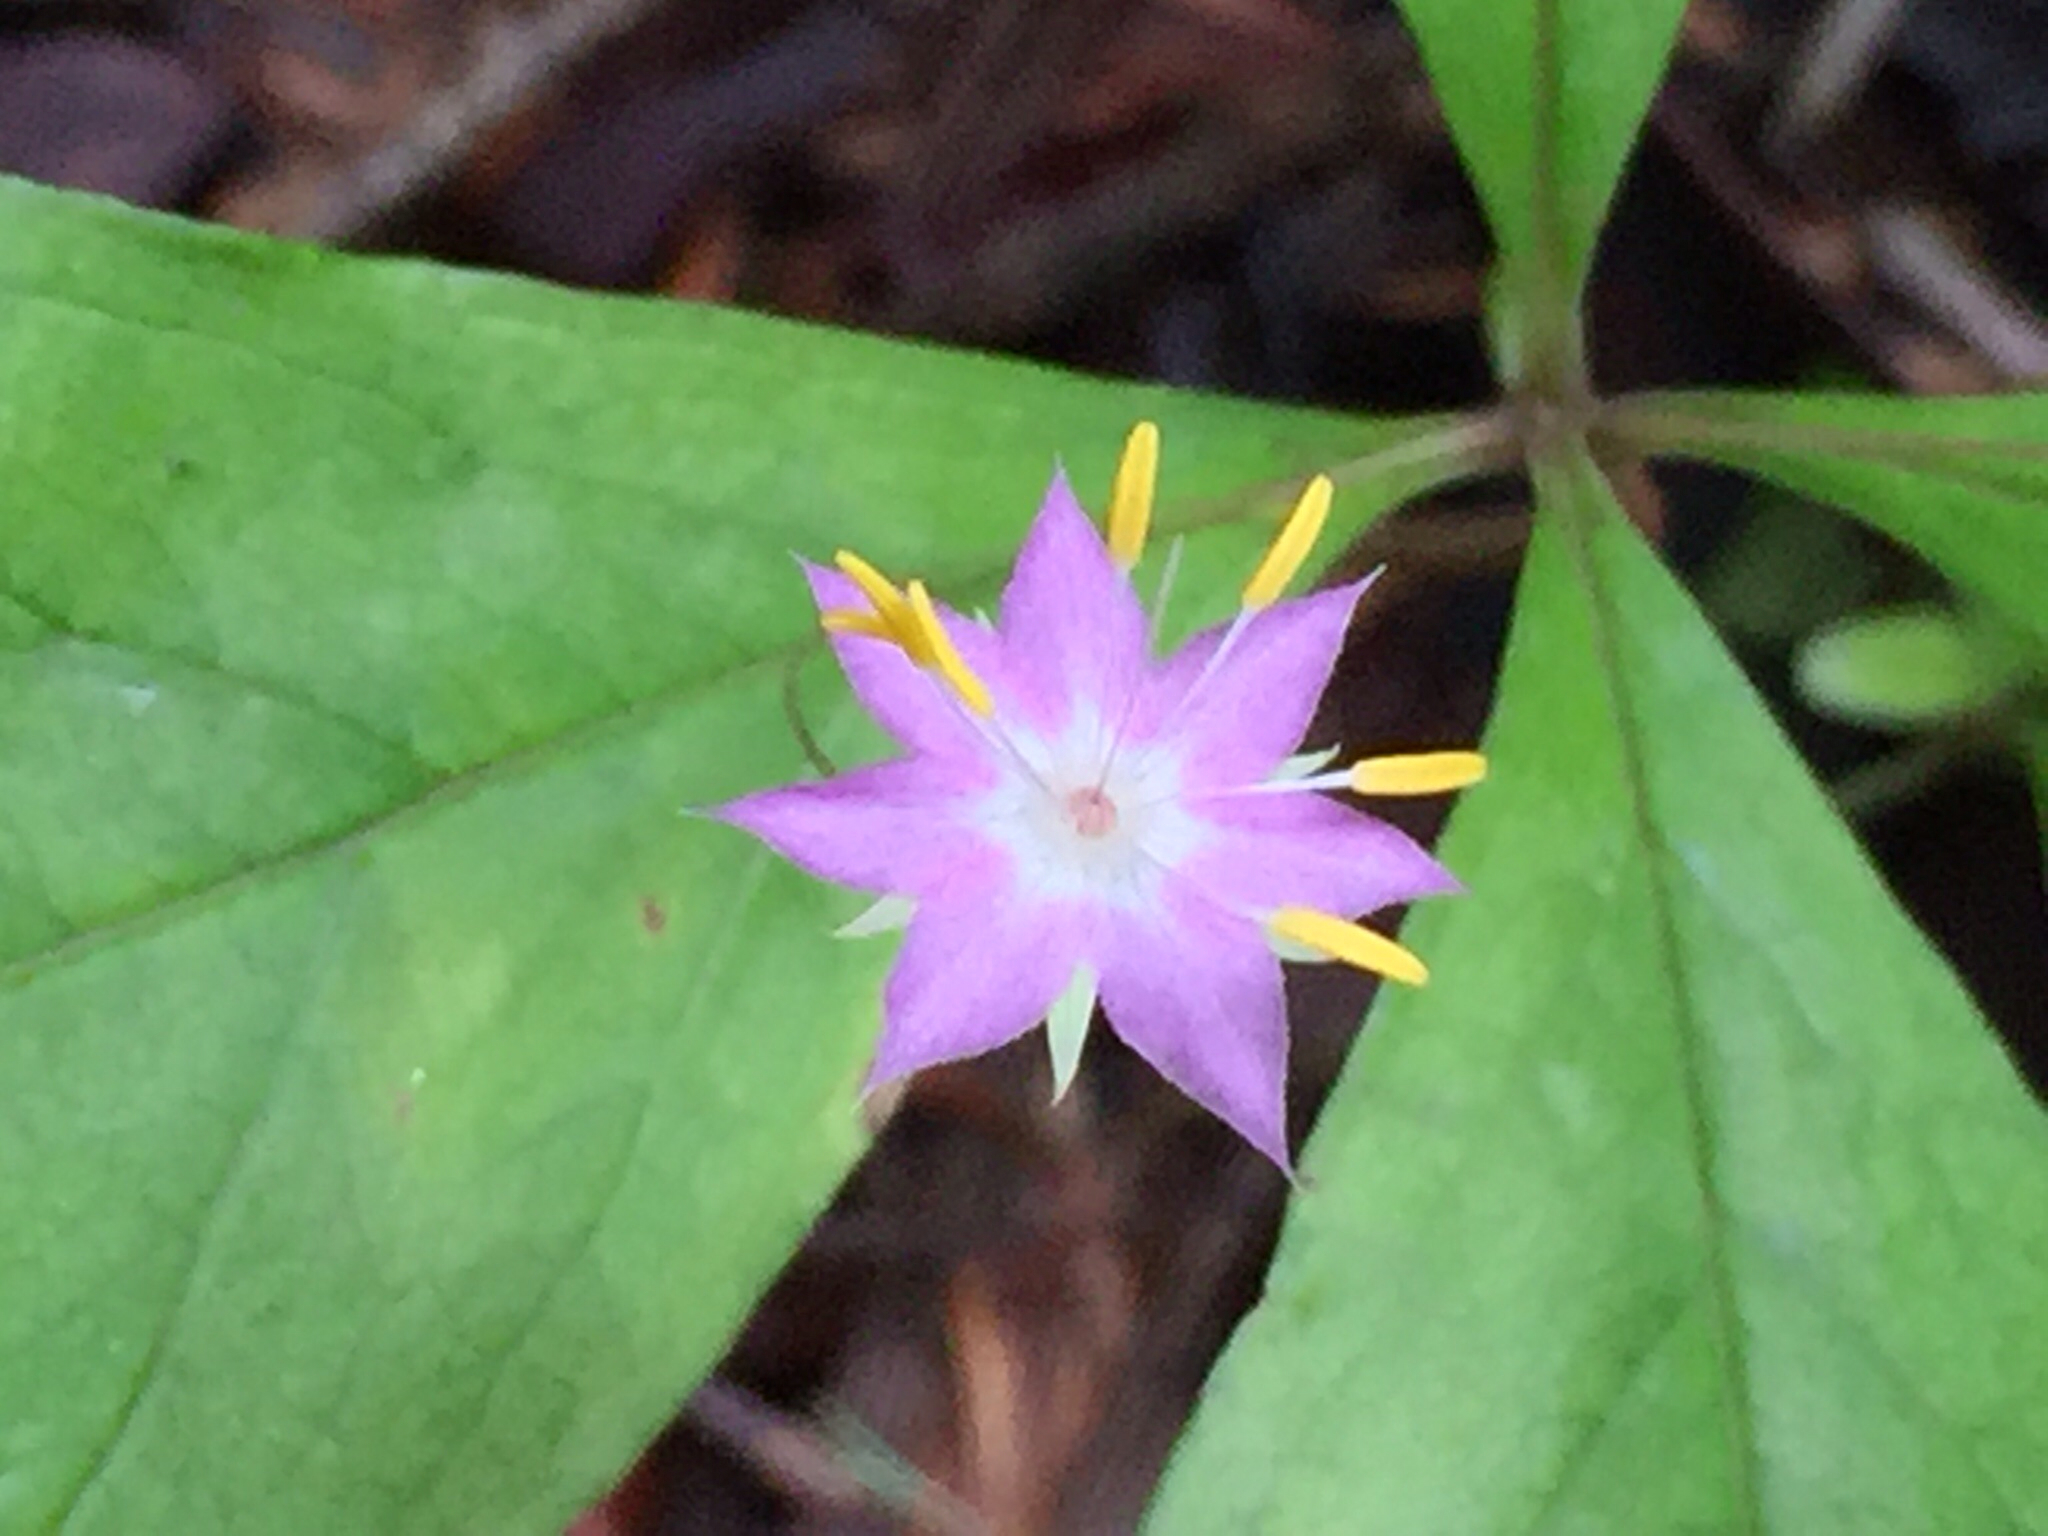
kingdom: Plantae
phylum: Tracheophyta
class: Magnoliopsida
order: Ericales
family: Primulaceae
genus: Lysimachia
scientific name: Lysimachia latifolia
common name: Pacific starflower
